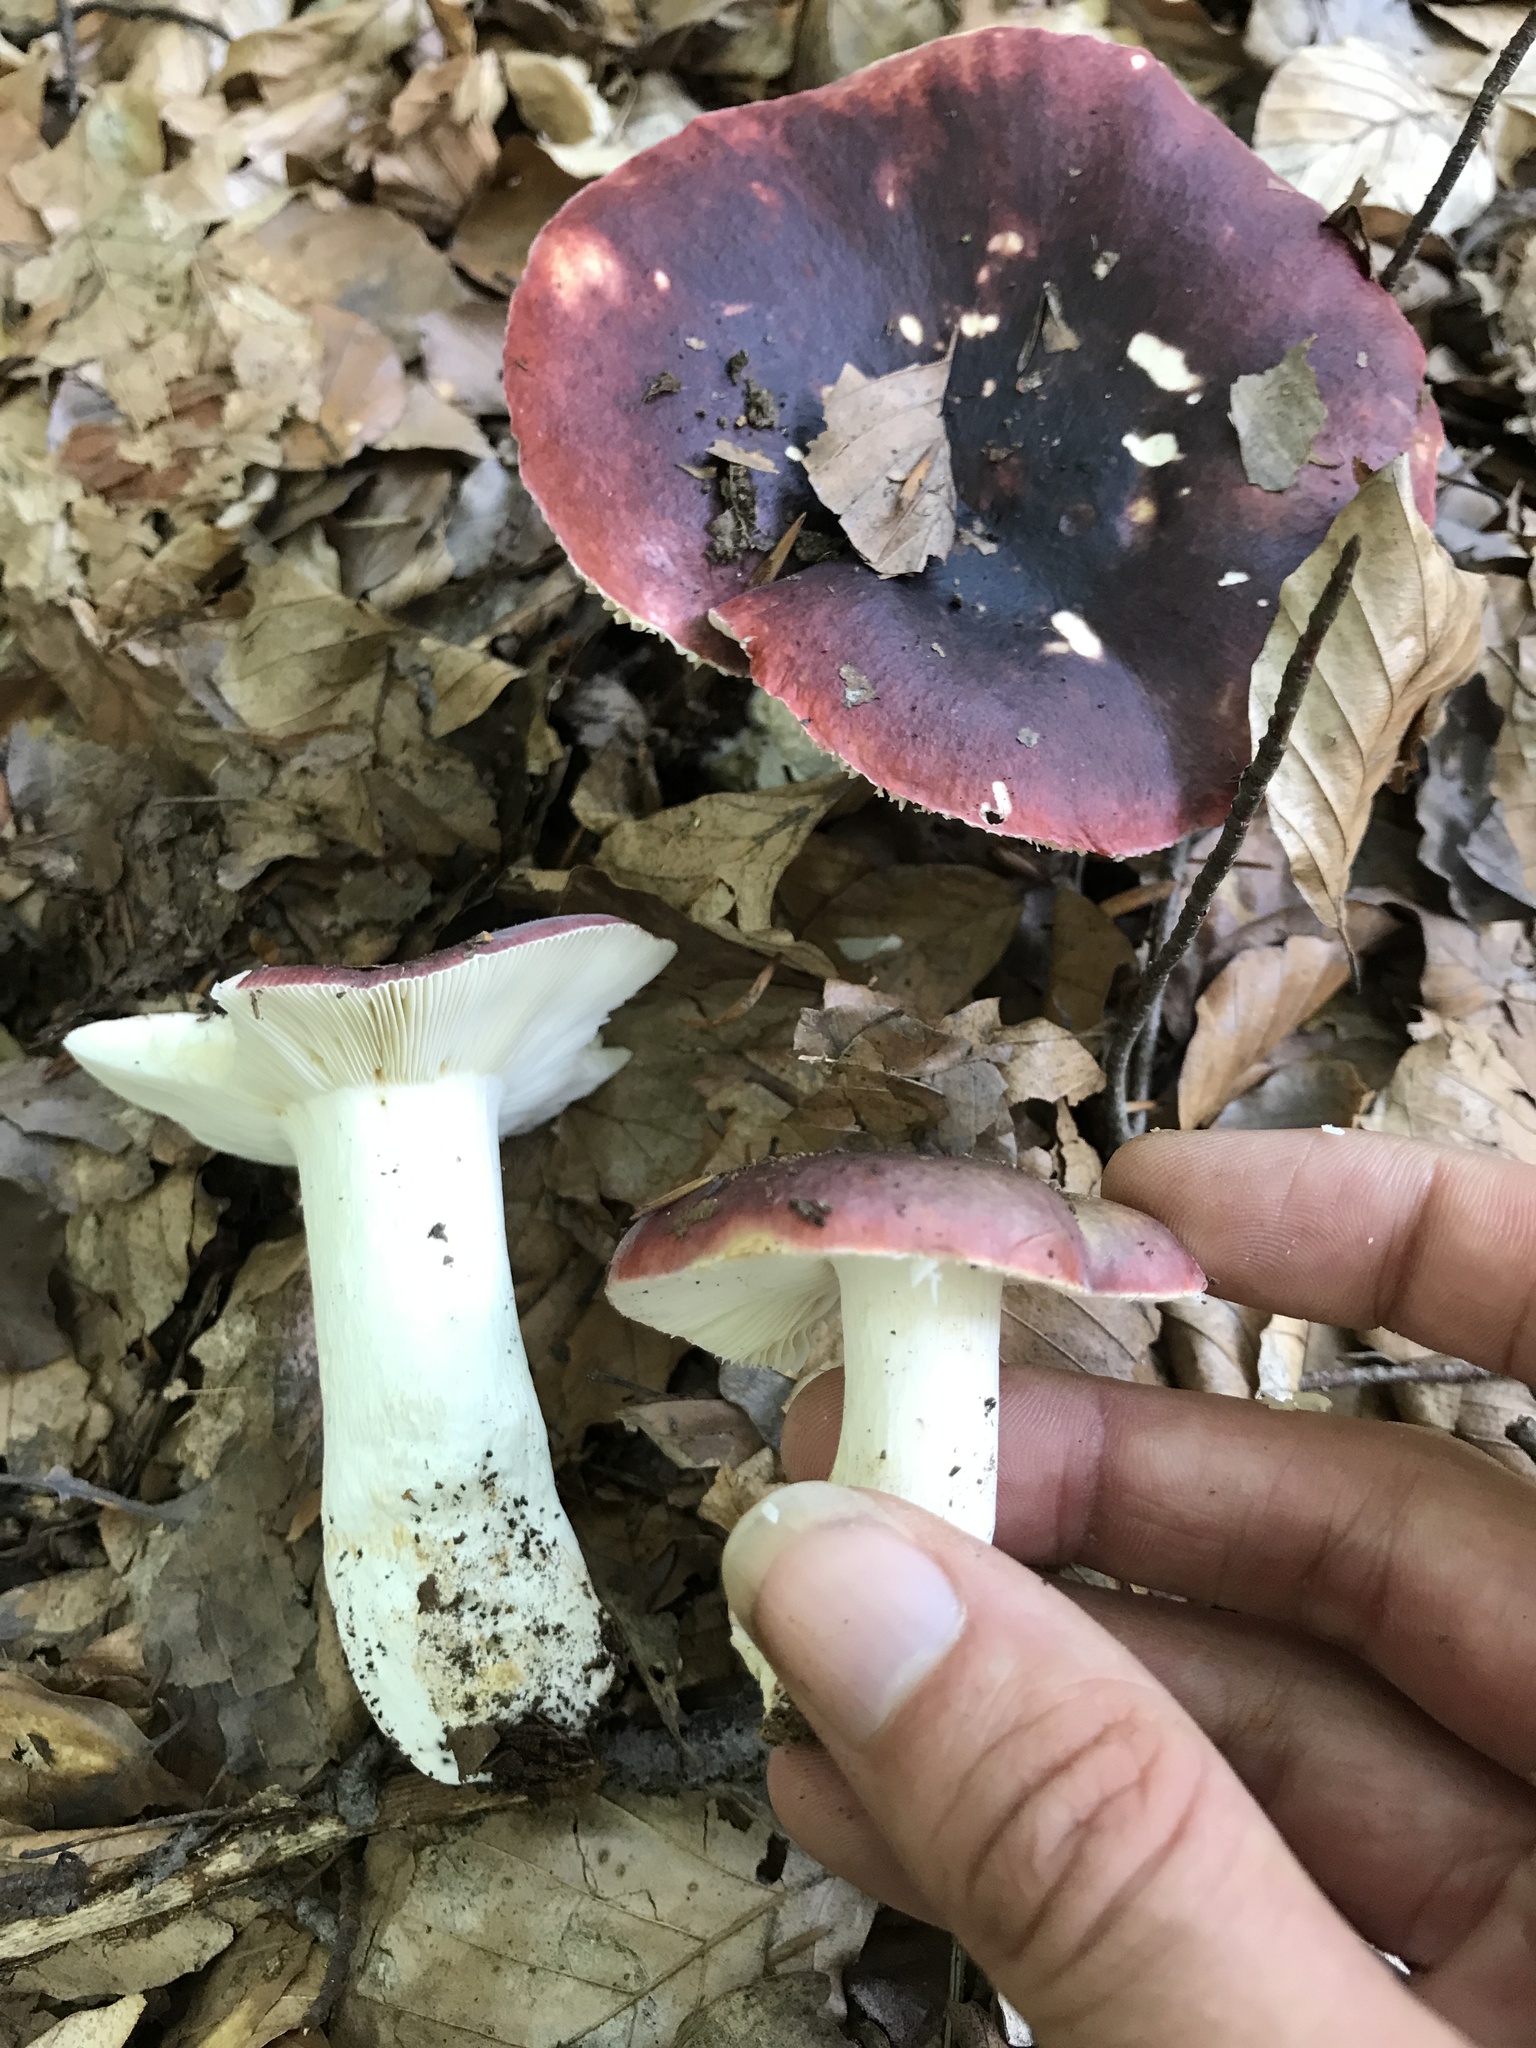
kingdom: Fungi
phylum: Basidiomycota
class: Agaricomycetes
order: Russulales
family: Russulaceae
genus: Russula
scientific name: Russula atropurpurea
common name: Blackish-purple russula
